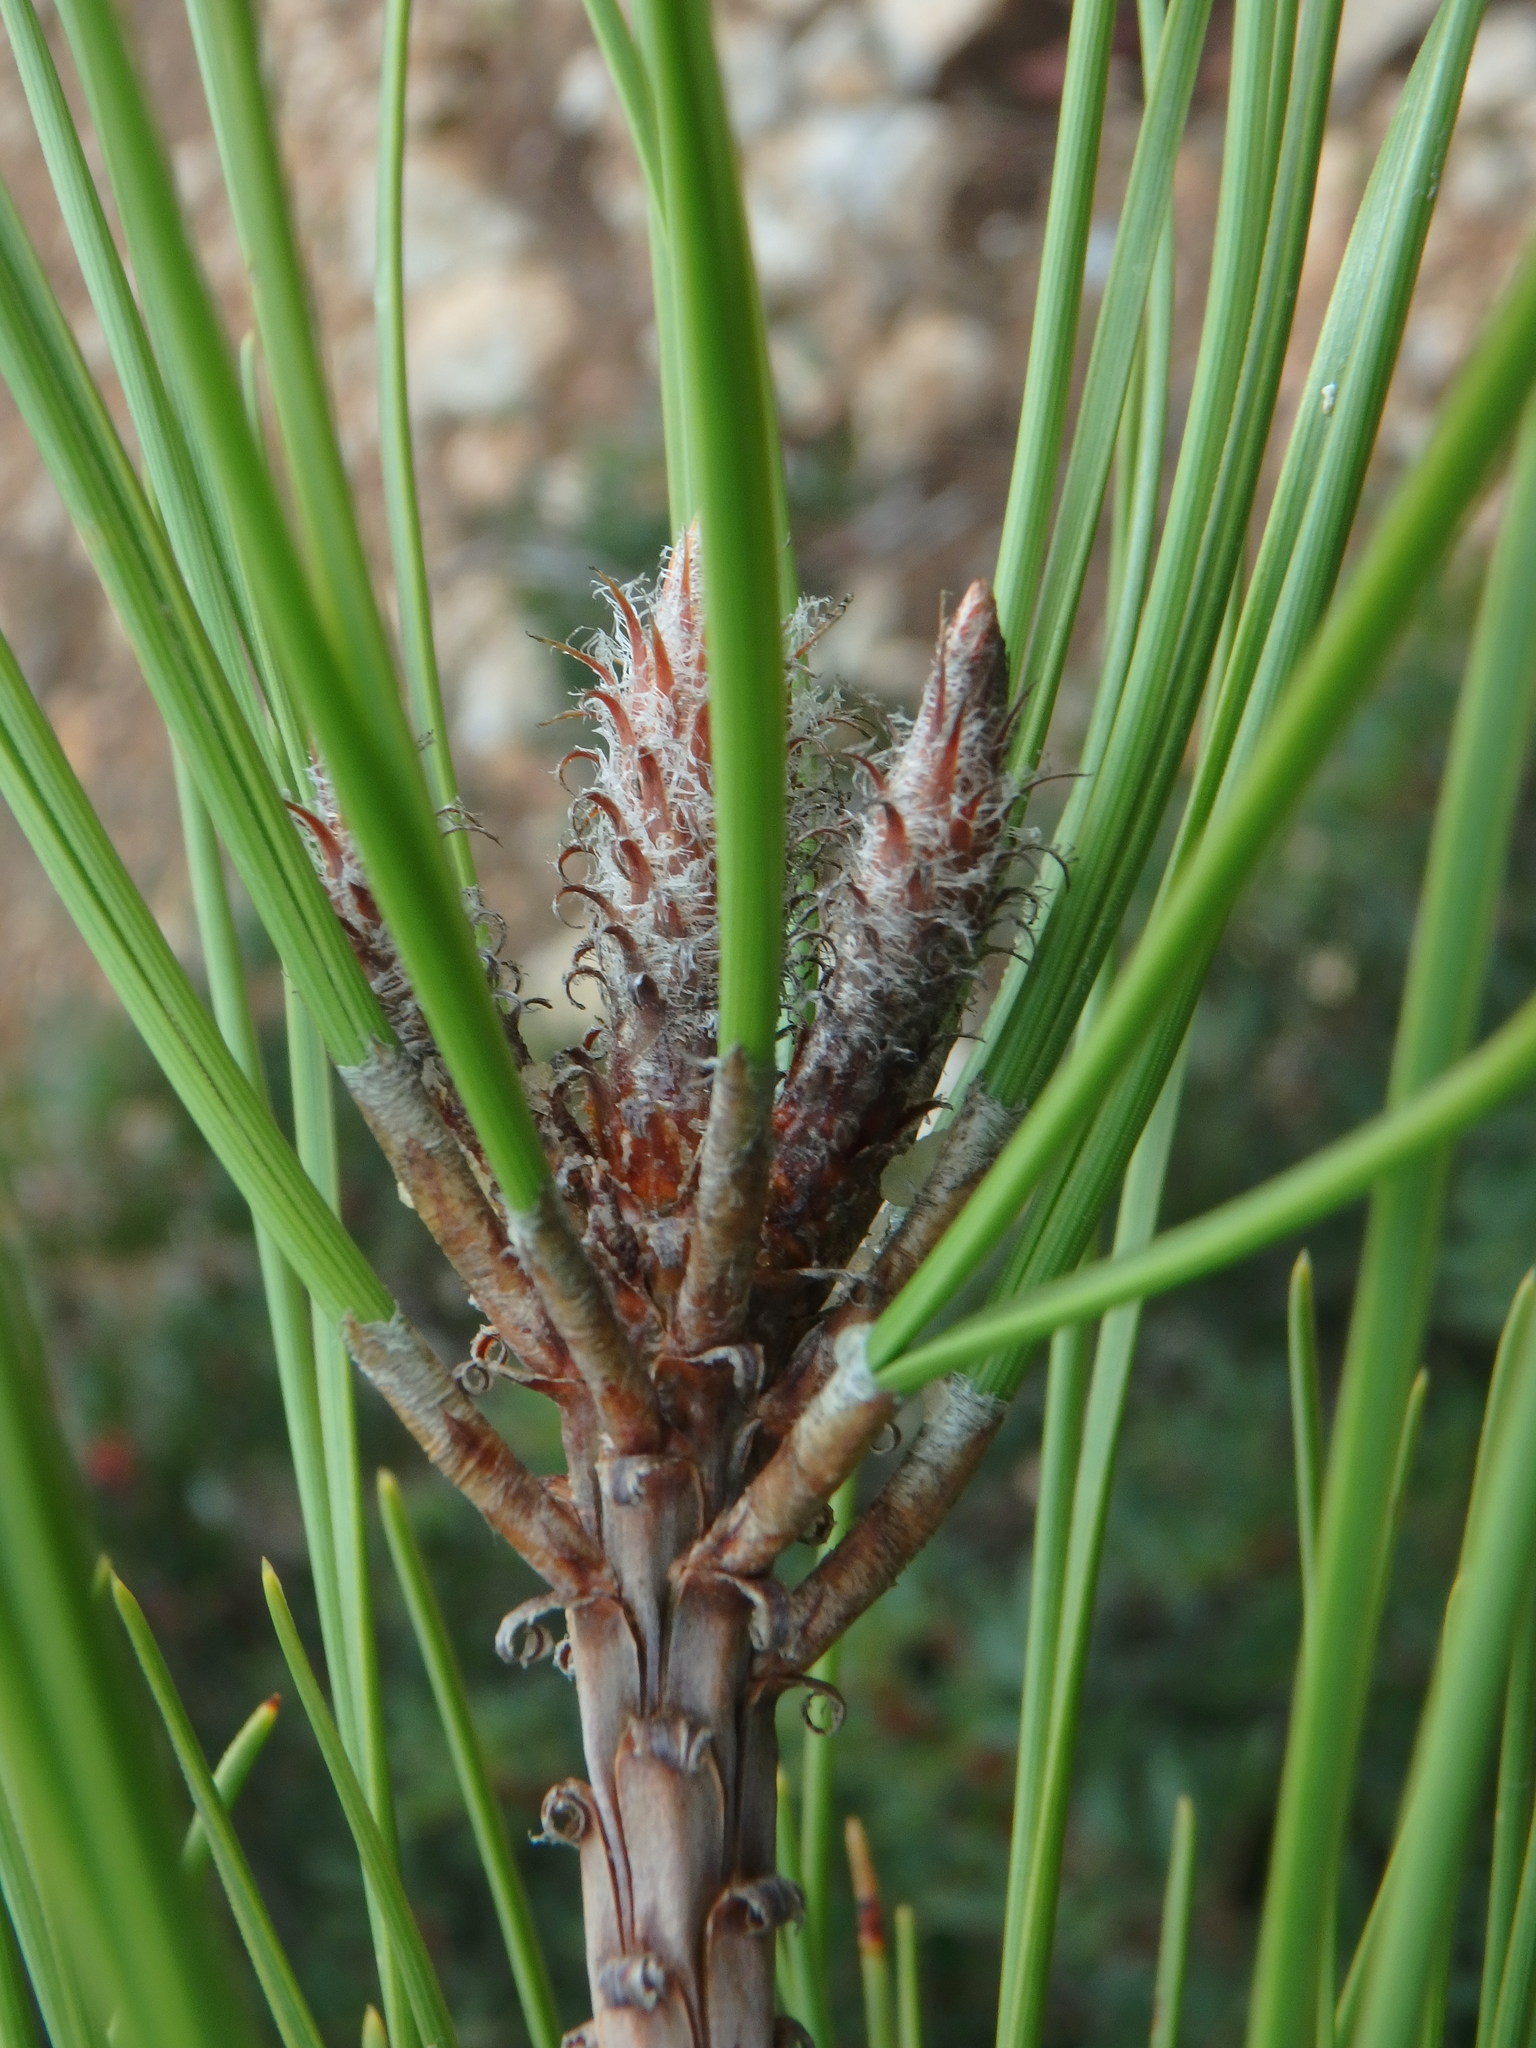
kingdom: Plantae
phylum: Tracheophyta
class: Pinopsida
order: Pinales
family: Pinaceae
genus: Pinus
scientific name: Pinus brutia
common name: Turkish pine
